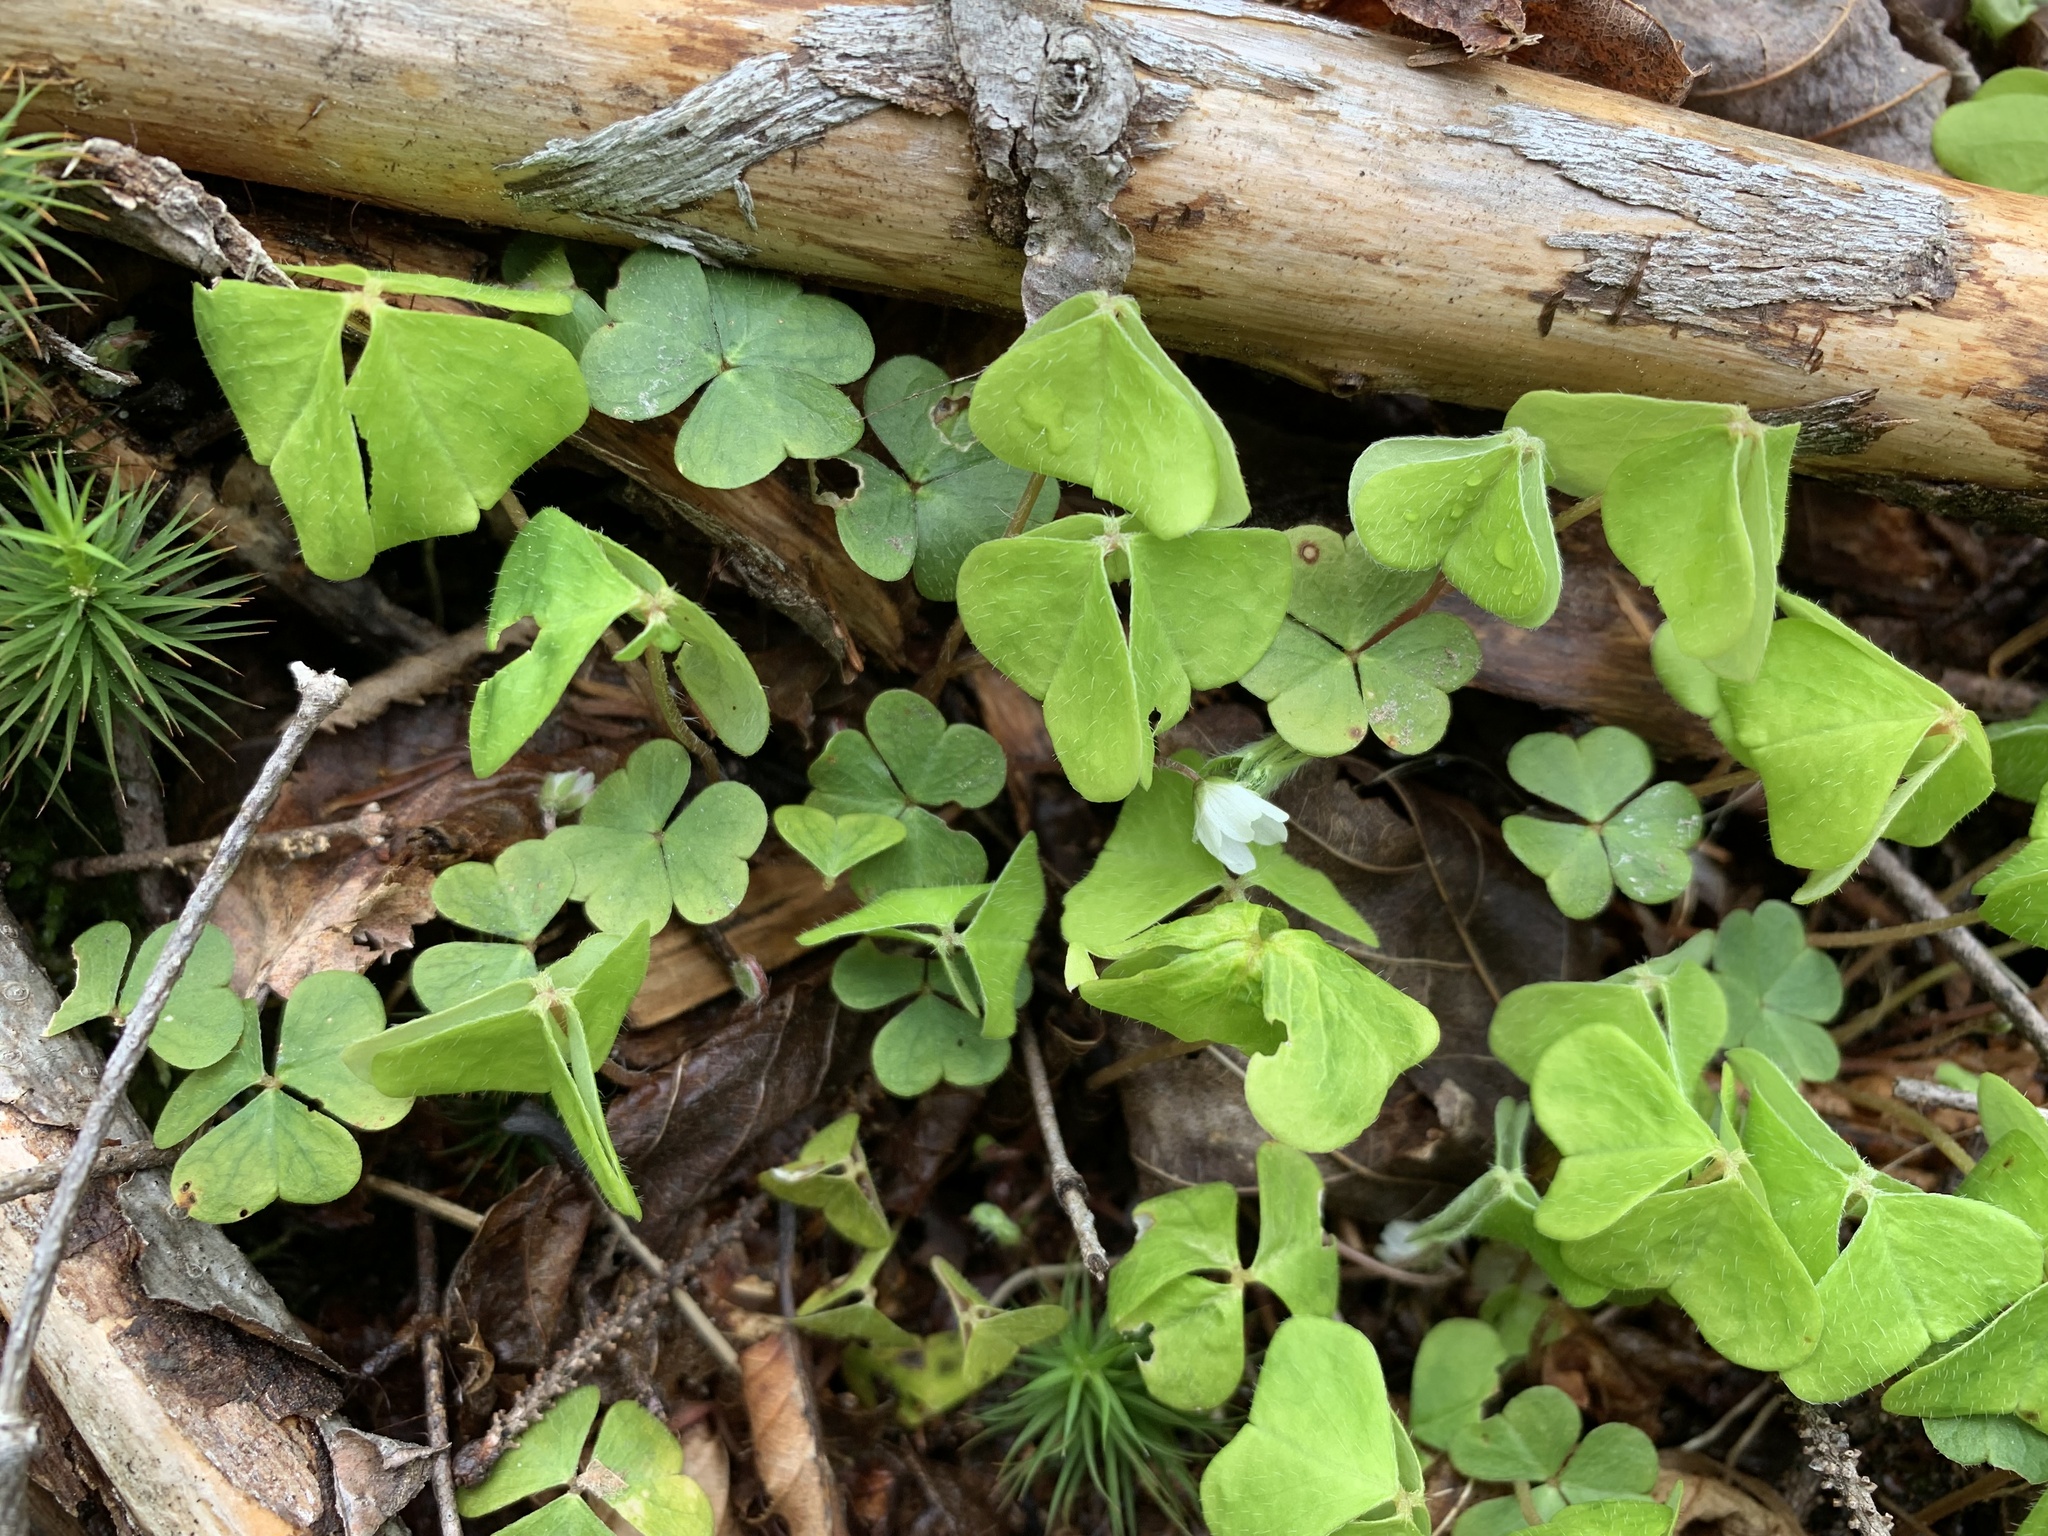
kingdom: Plantae
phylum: Tracheophyta
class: Magnoliopsida
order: Oxalidales
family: Oxalidaceae
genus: Oxalis
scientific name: Oxalis montana
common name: American wood-sorrel
